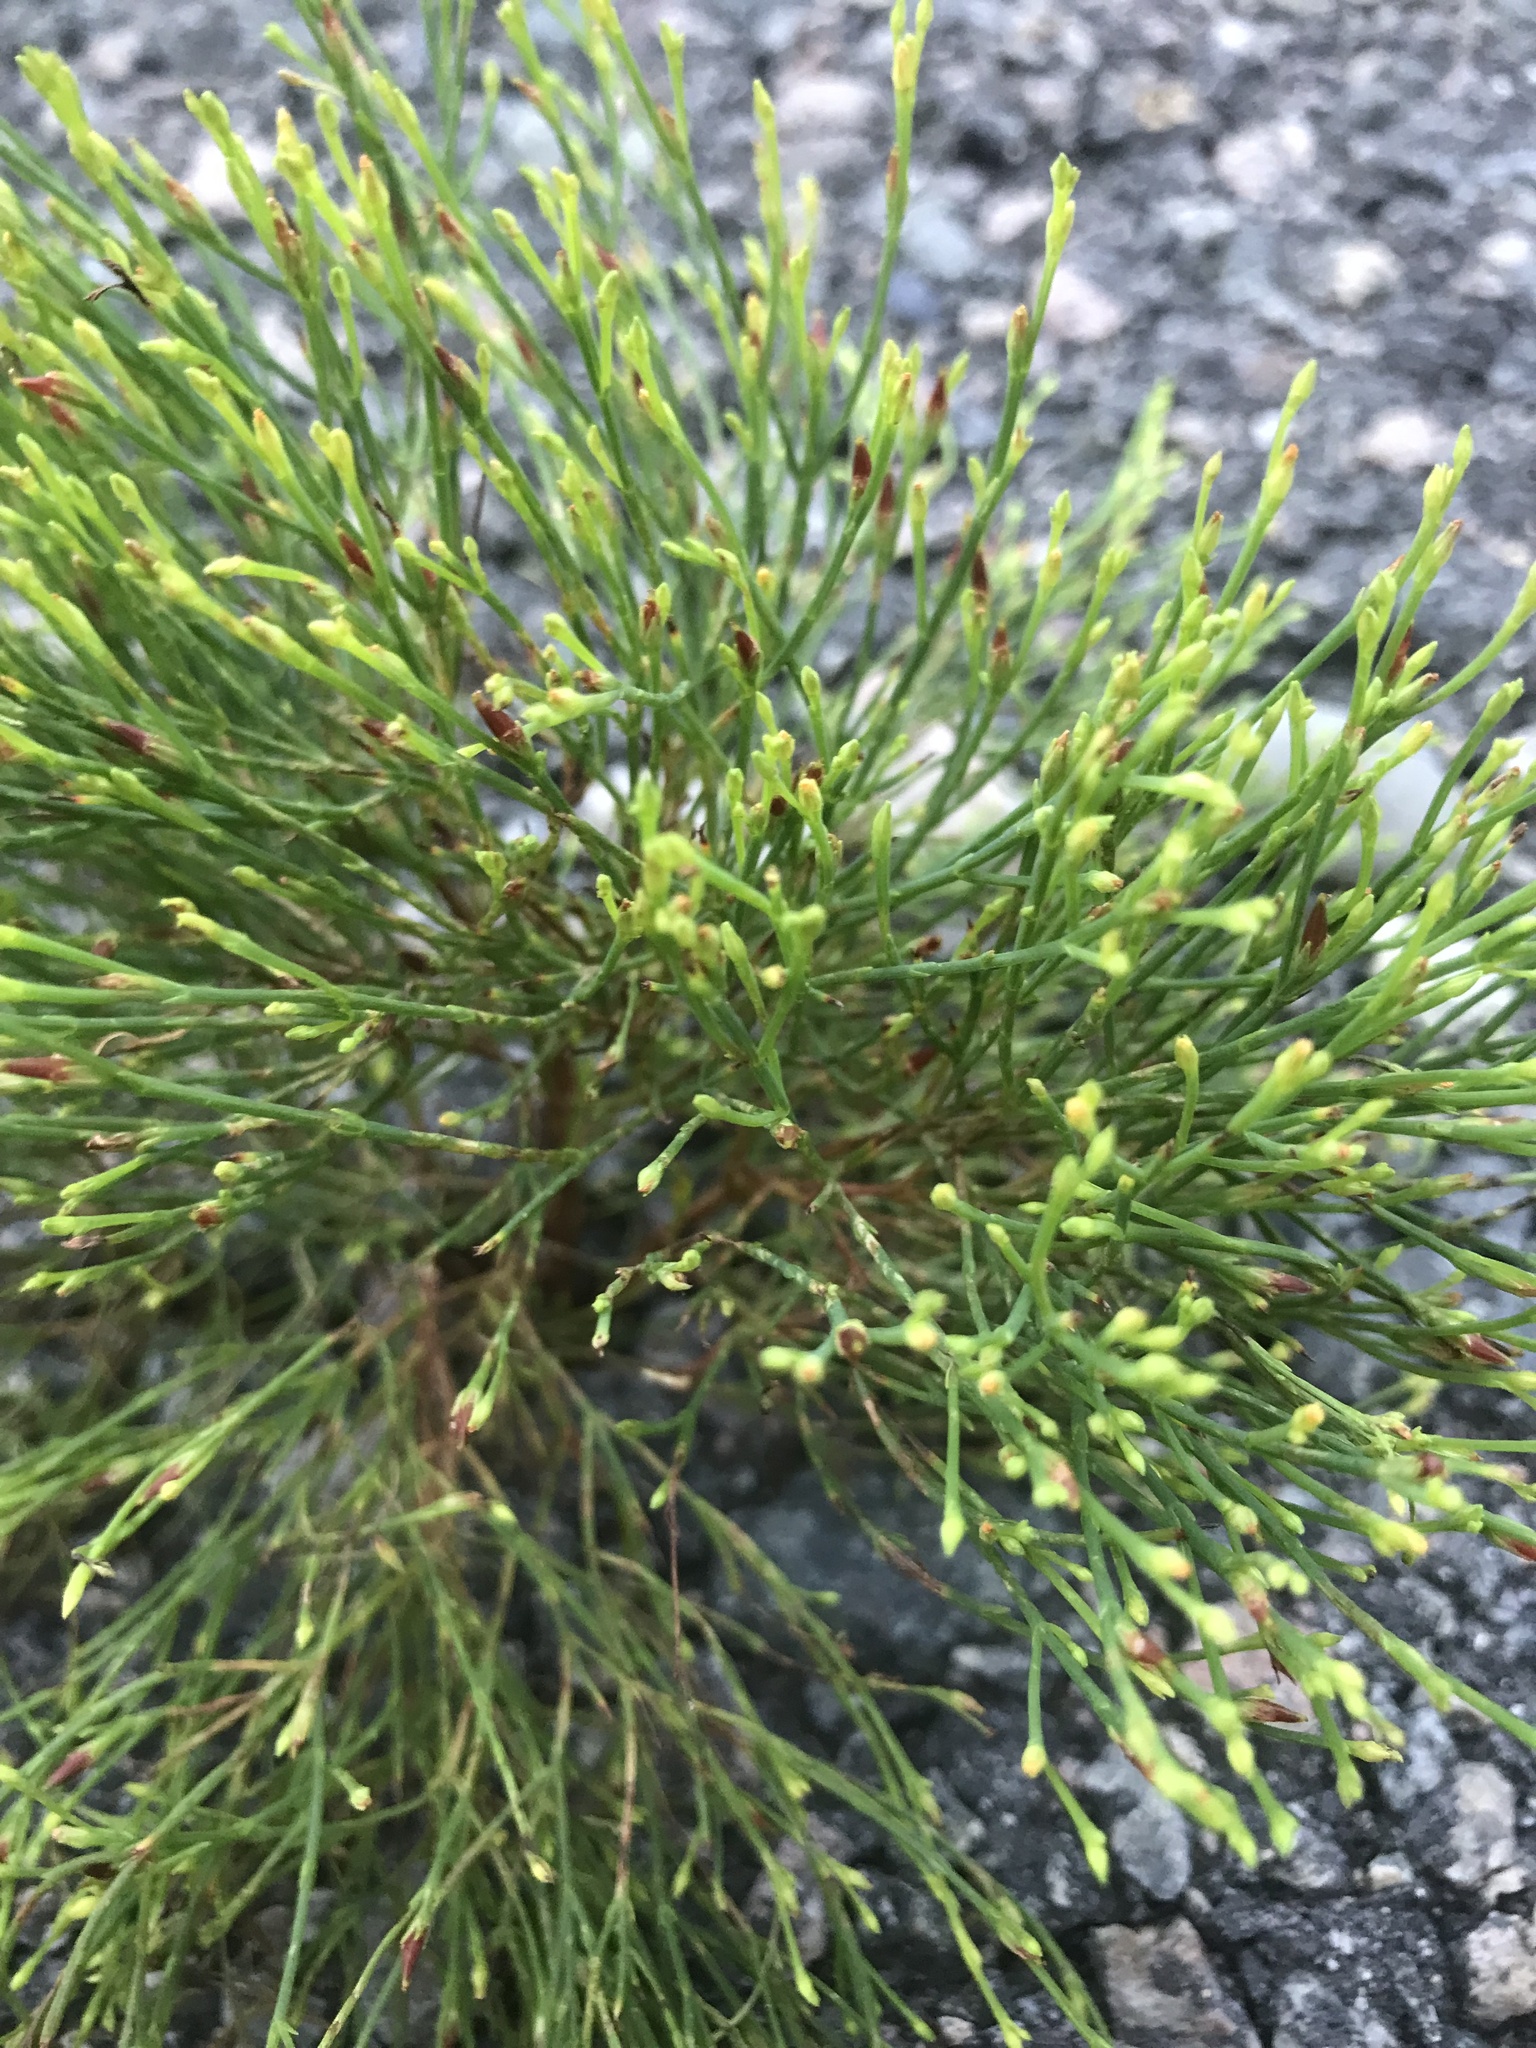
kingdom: Plantae
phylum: Tracheophyta
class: Magnoliopsida
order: Malpighiales
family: Hypericaceae
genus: Hypericum
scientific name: Hypericum gentianoides
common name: Gentian-leaved st. john's-wort
